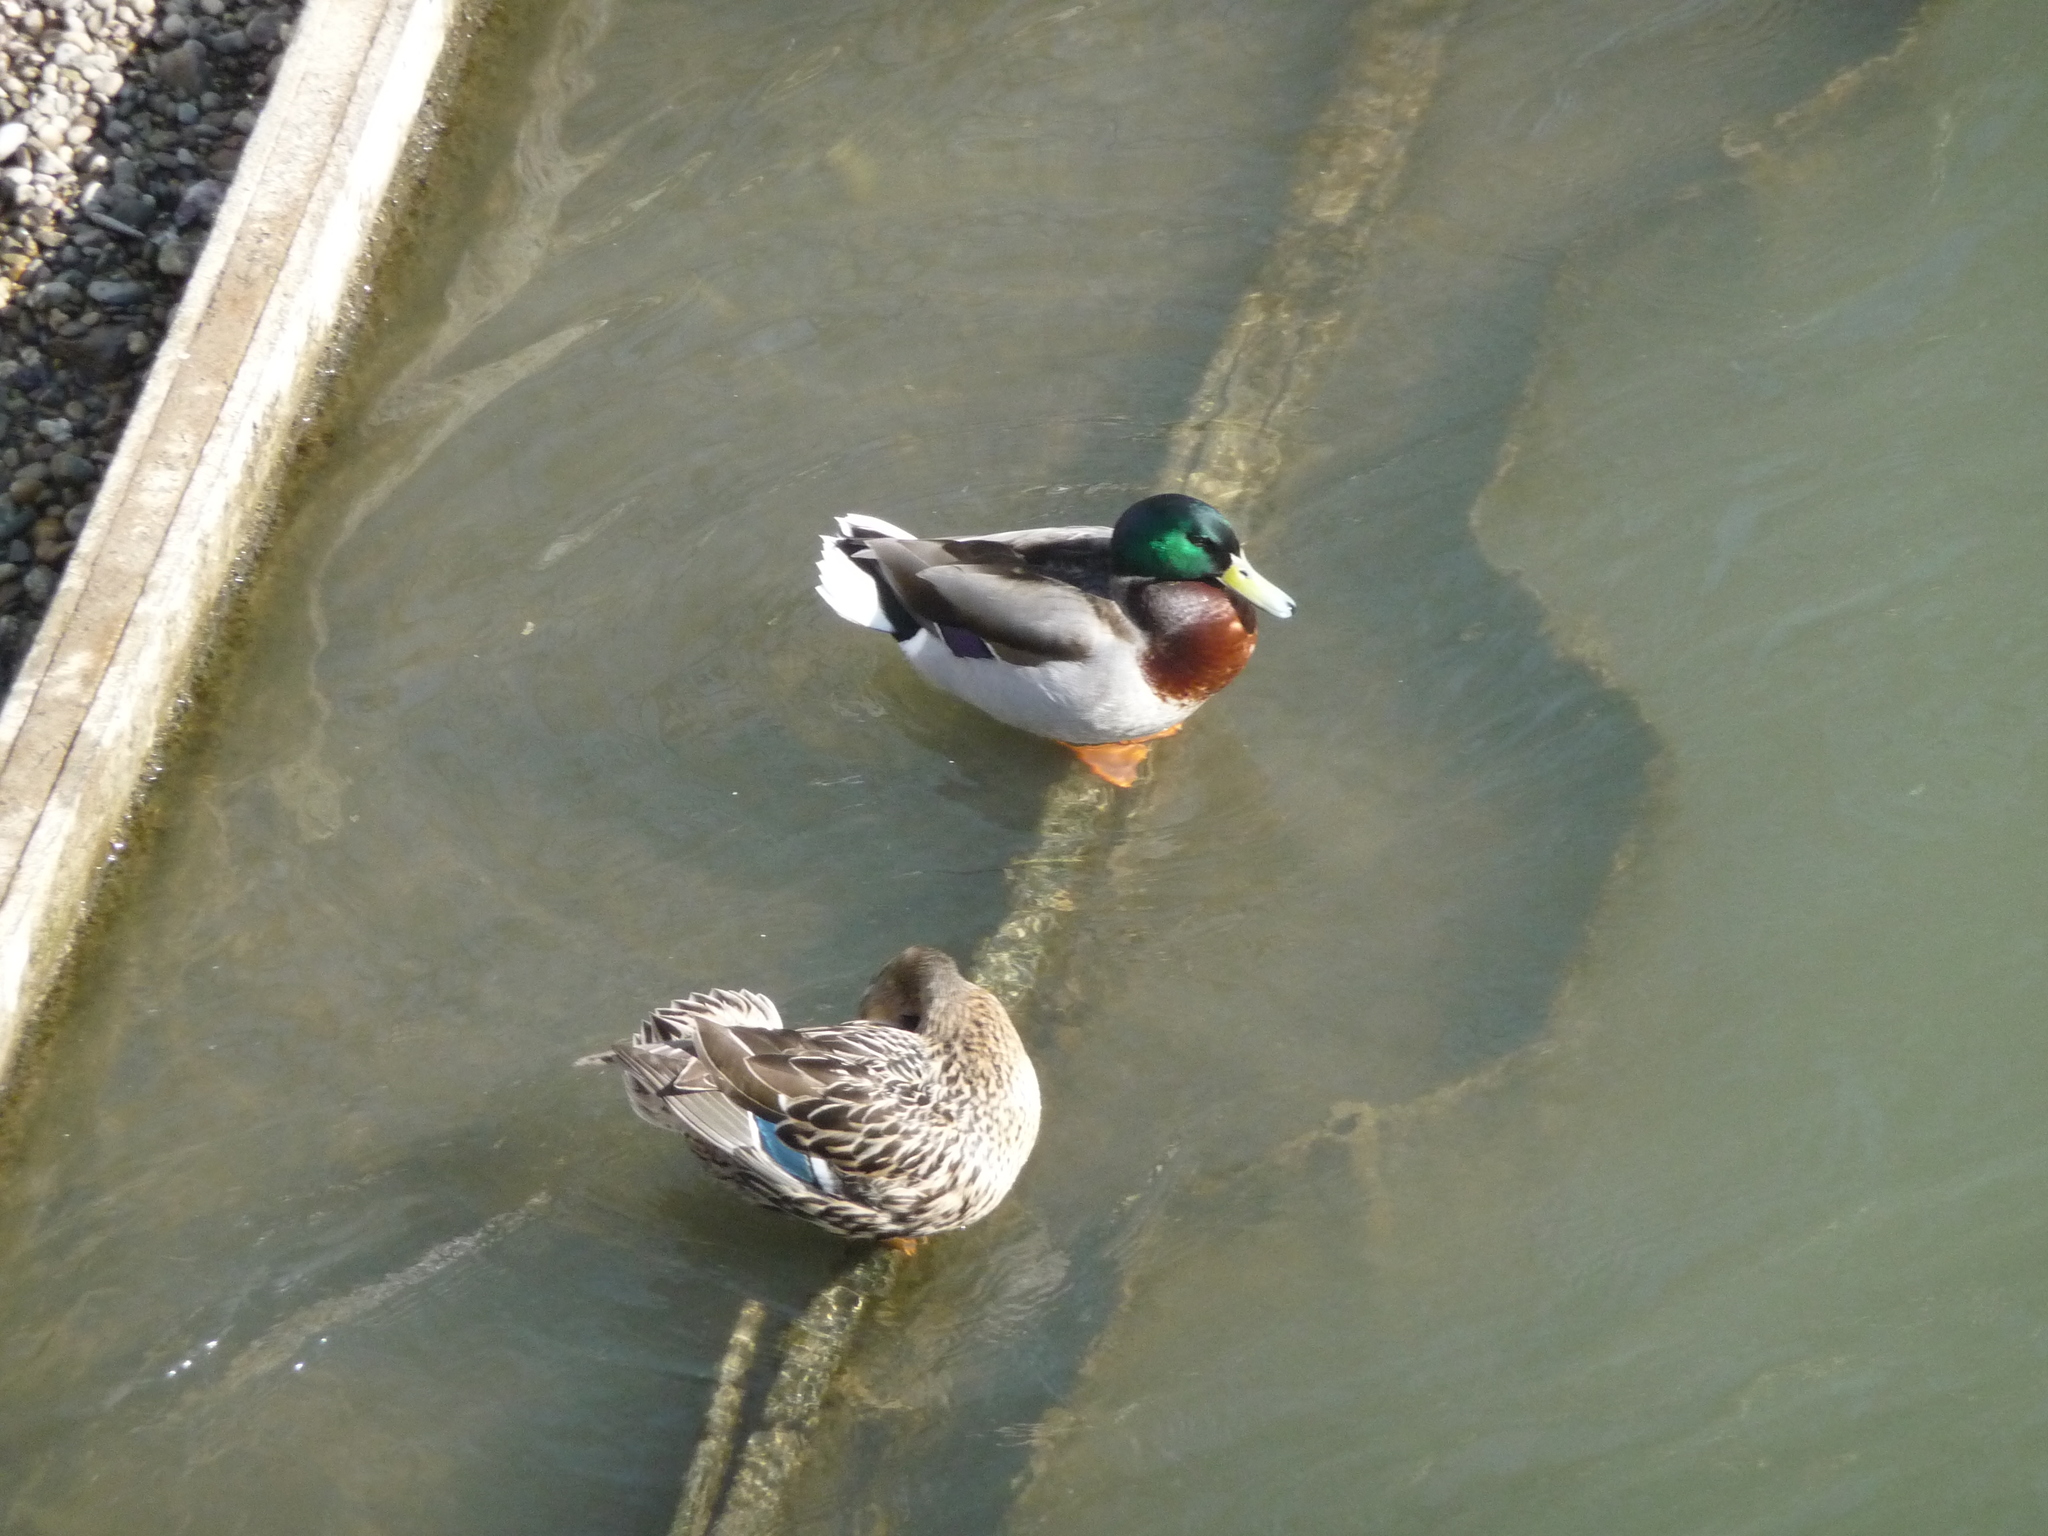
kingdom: Animalia
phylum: Chordata
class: Aves
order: Anseriformes
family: Anatidae
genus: Anas
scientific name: Anas platyrhynchos
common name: Mallard
